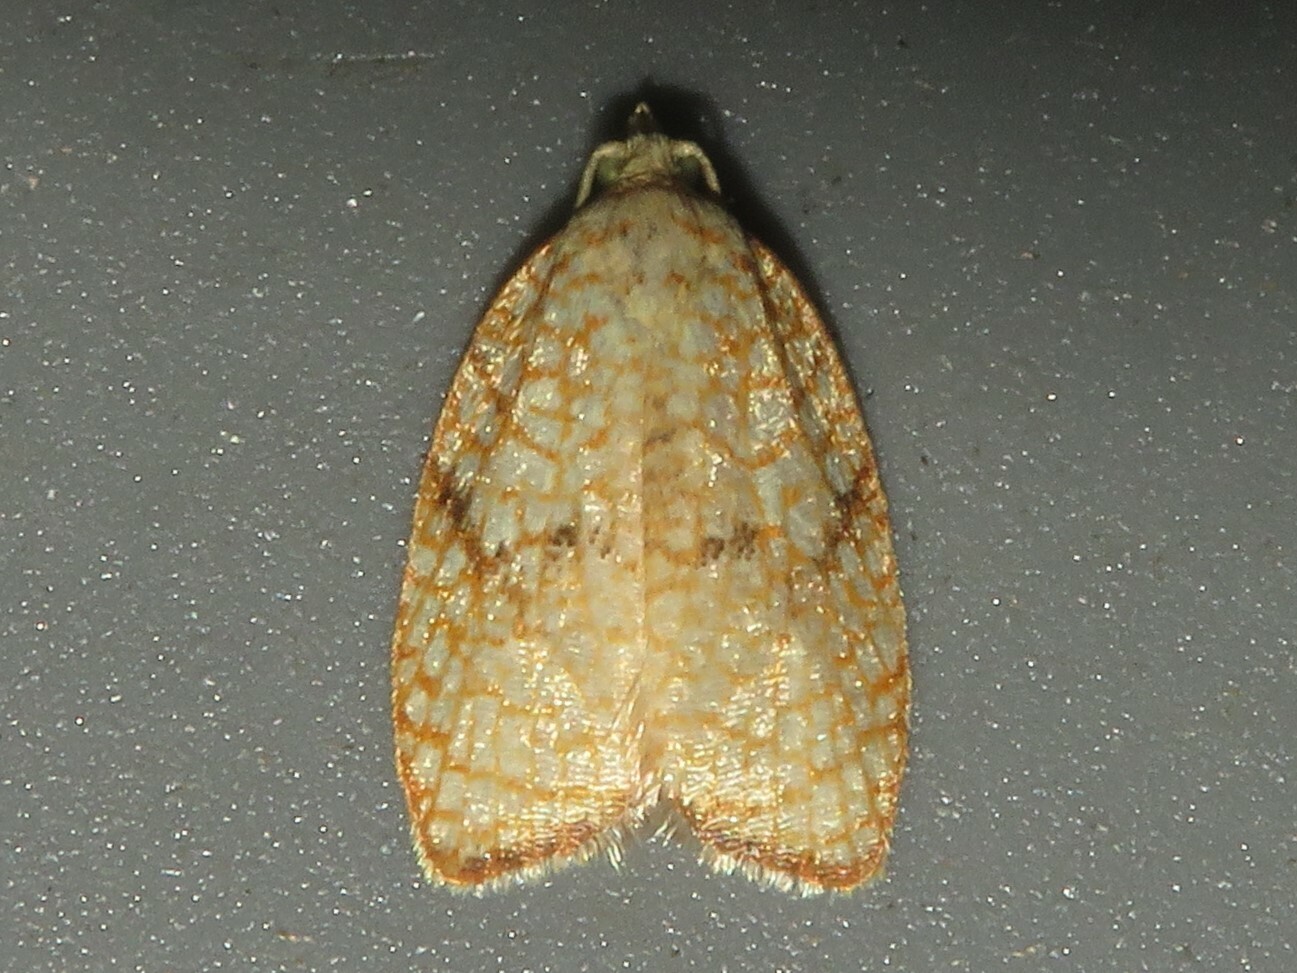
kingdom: Animalia
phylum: Arthropoda
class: Insecta
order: Lepidoptera
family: Tortricidae
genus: Acleris
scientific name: Acleris forsskaleana
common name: Maple button
